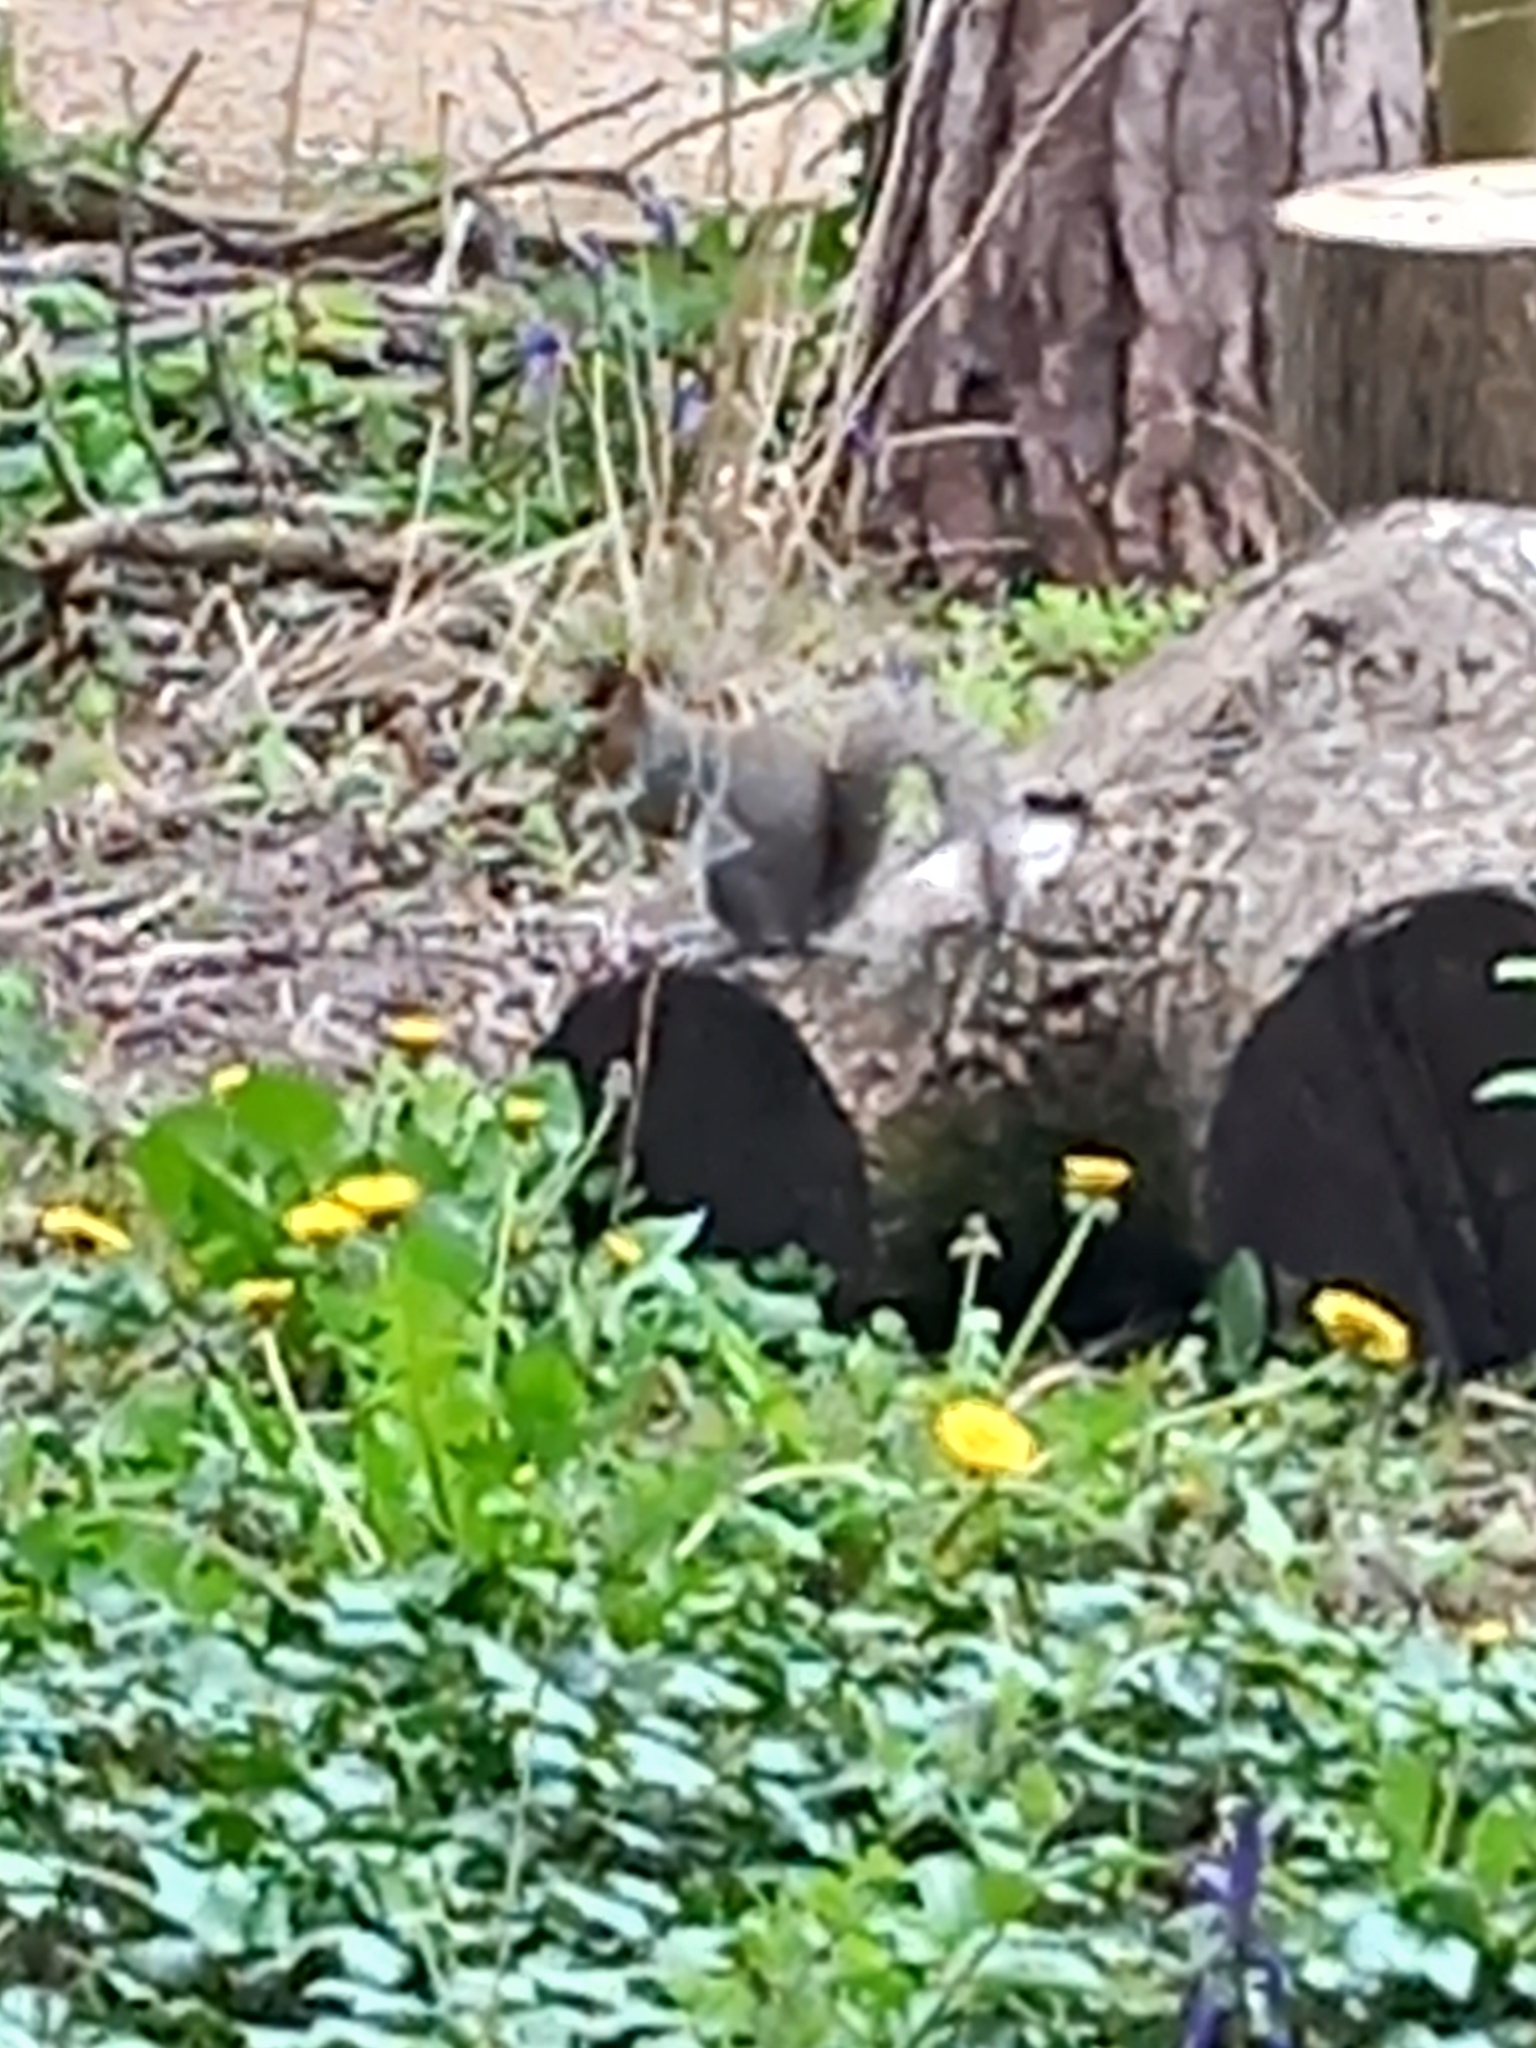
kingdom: Animalia
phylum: Chordata
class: Mammalia
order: Rodentia
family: Sciuridae
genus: Sciurus
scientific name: Sciurus carolinensis
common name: Eastern gray squirrel
